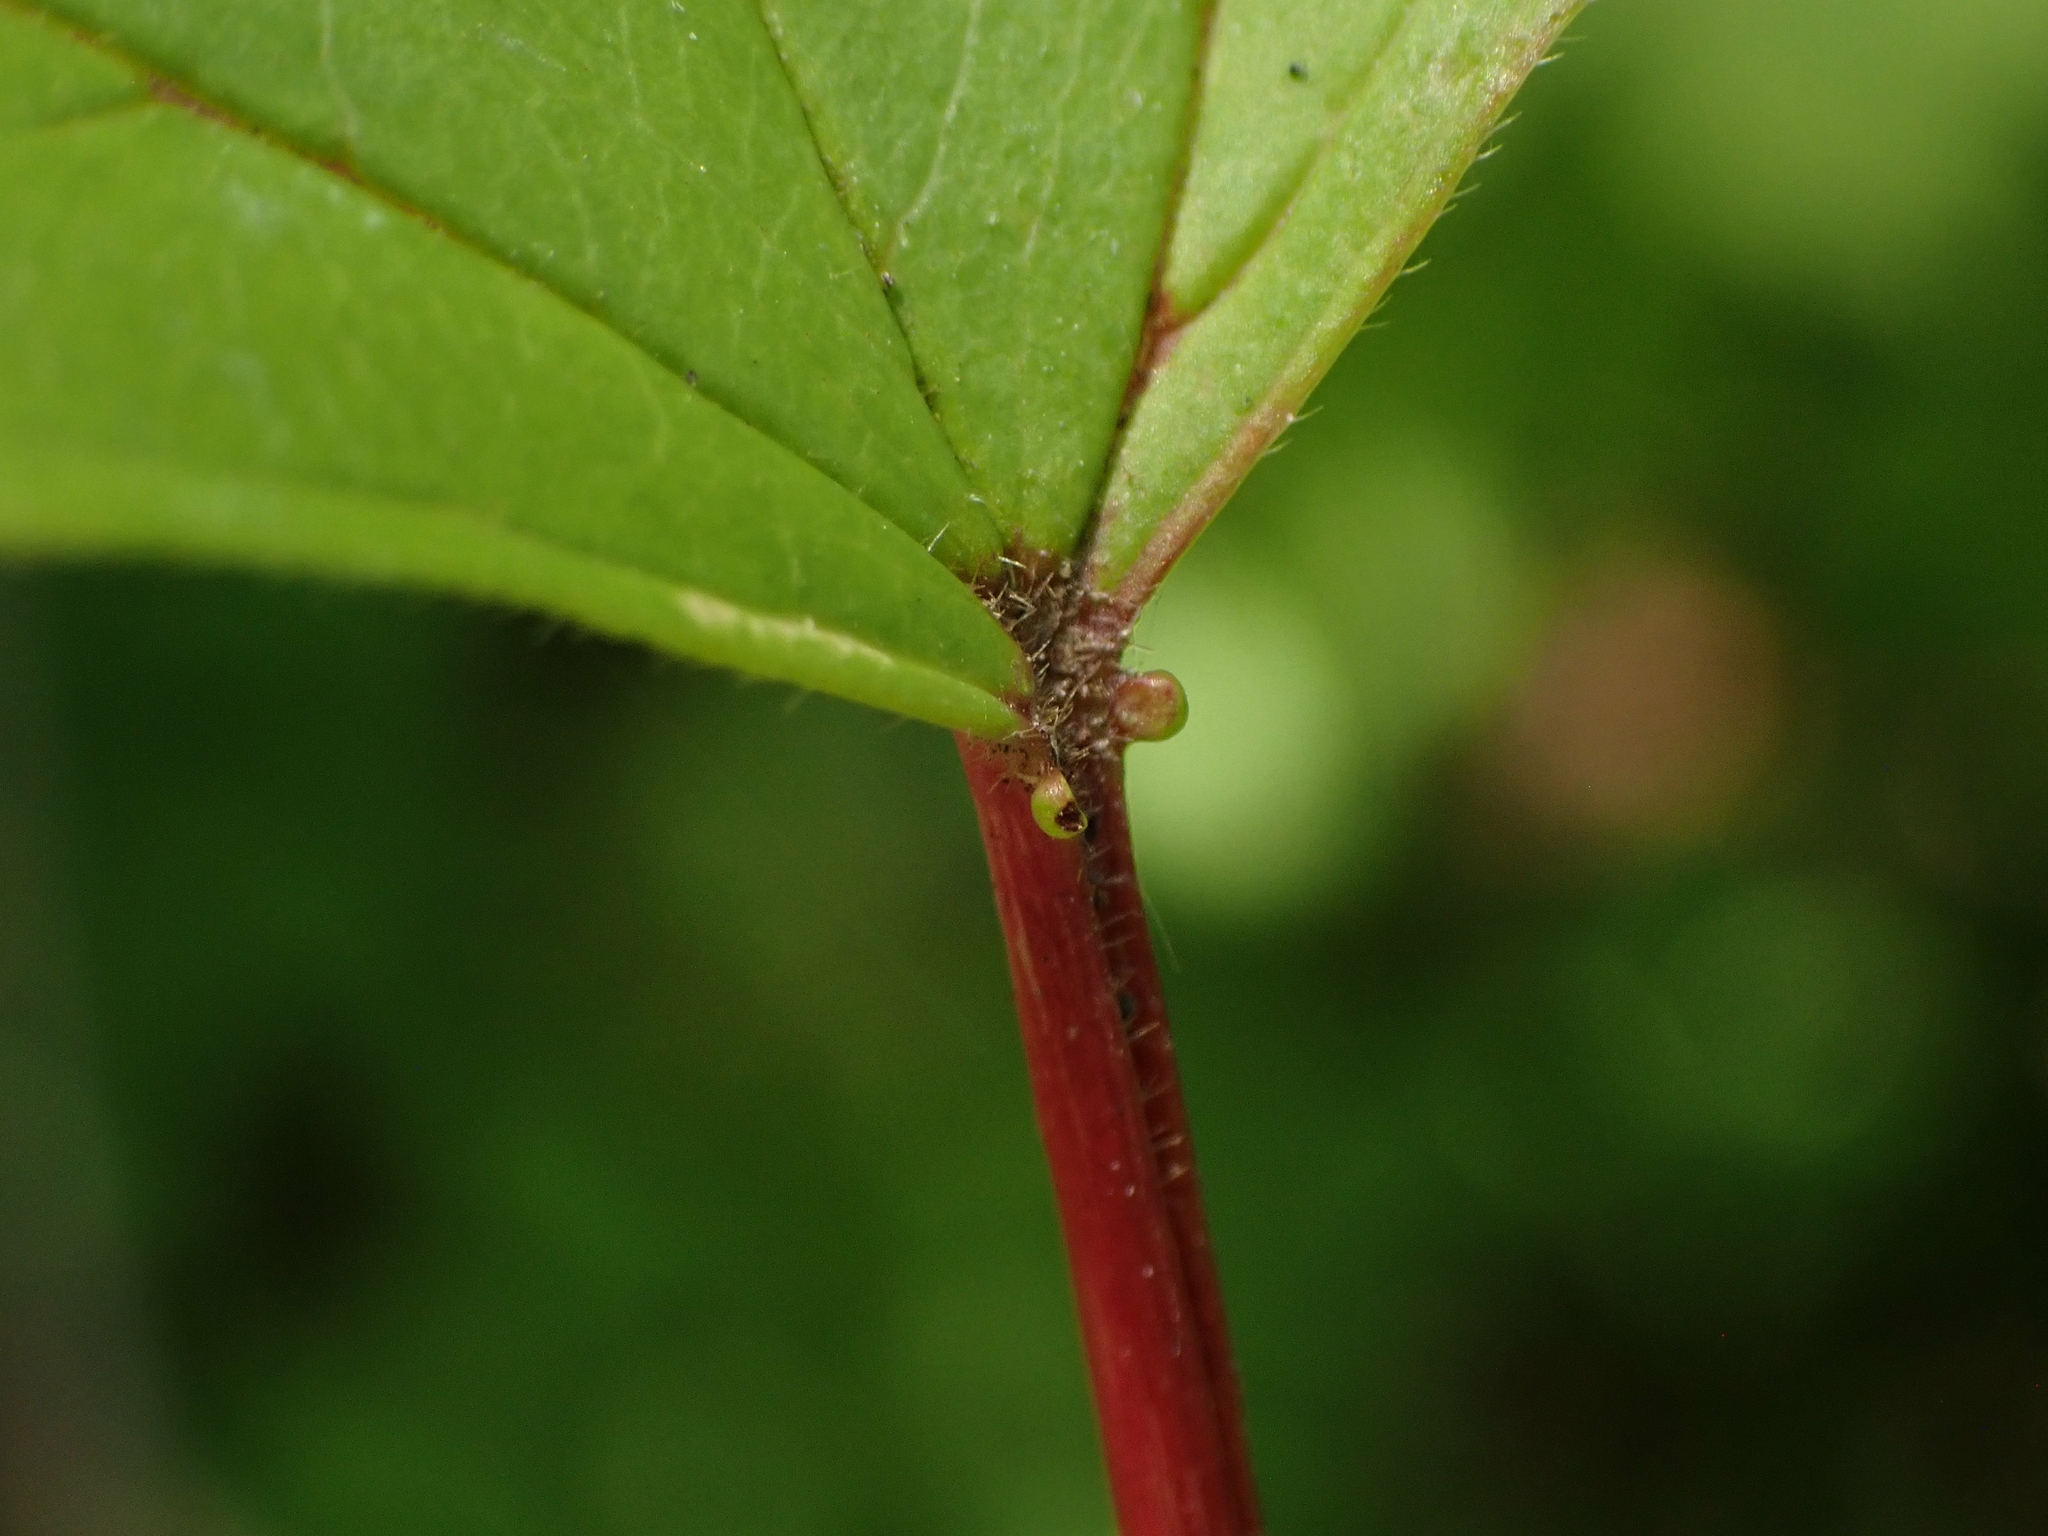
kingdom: Plantae
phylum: Tracheophyta
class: Magnoliopsida
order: Dipsacales
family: Viburnaceae
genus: Viburnum
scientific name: Viburnum trilobum
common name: American cranberrybush
